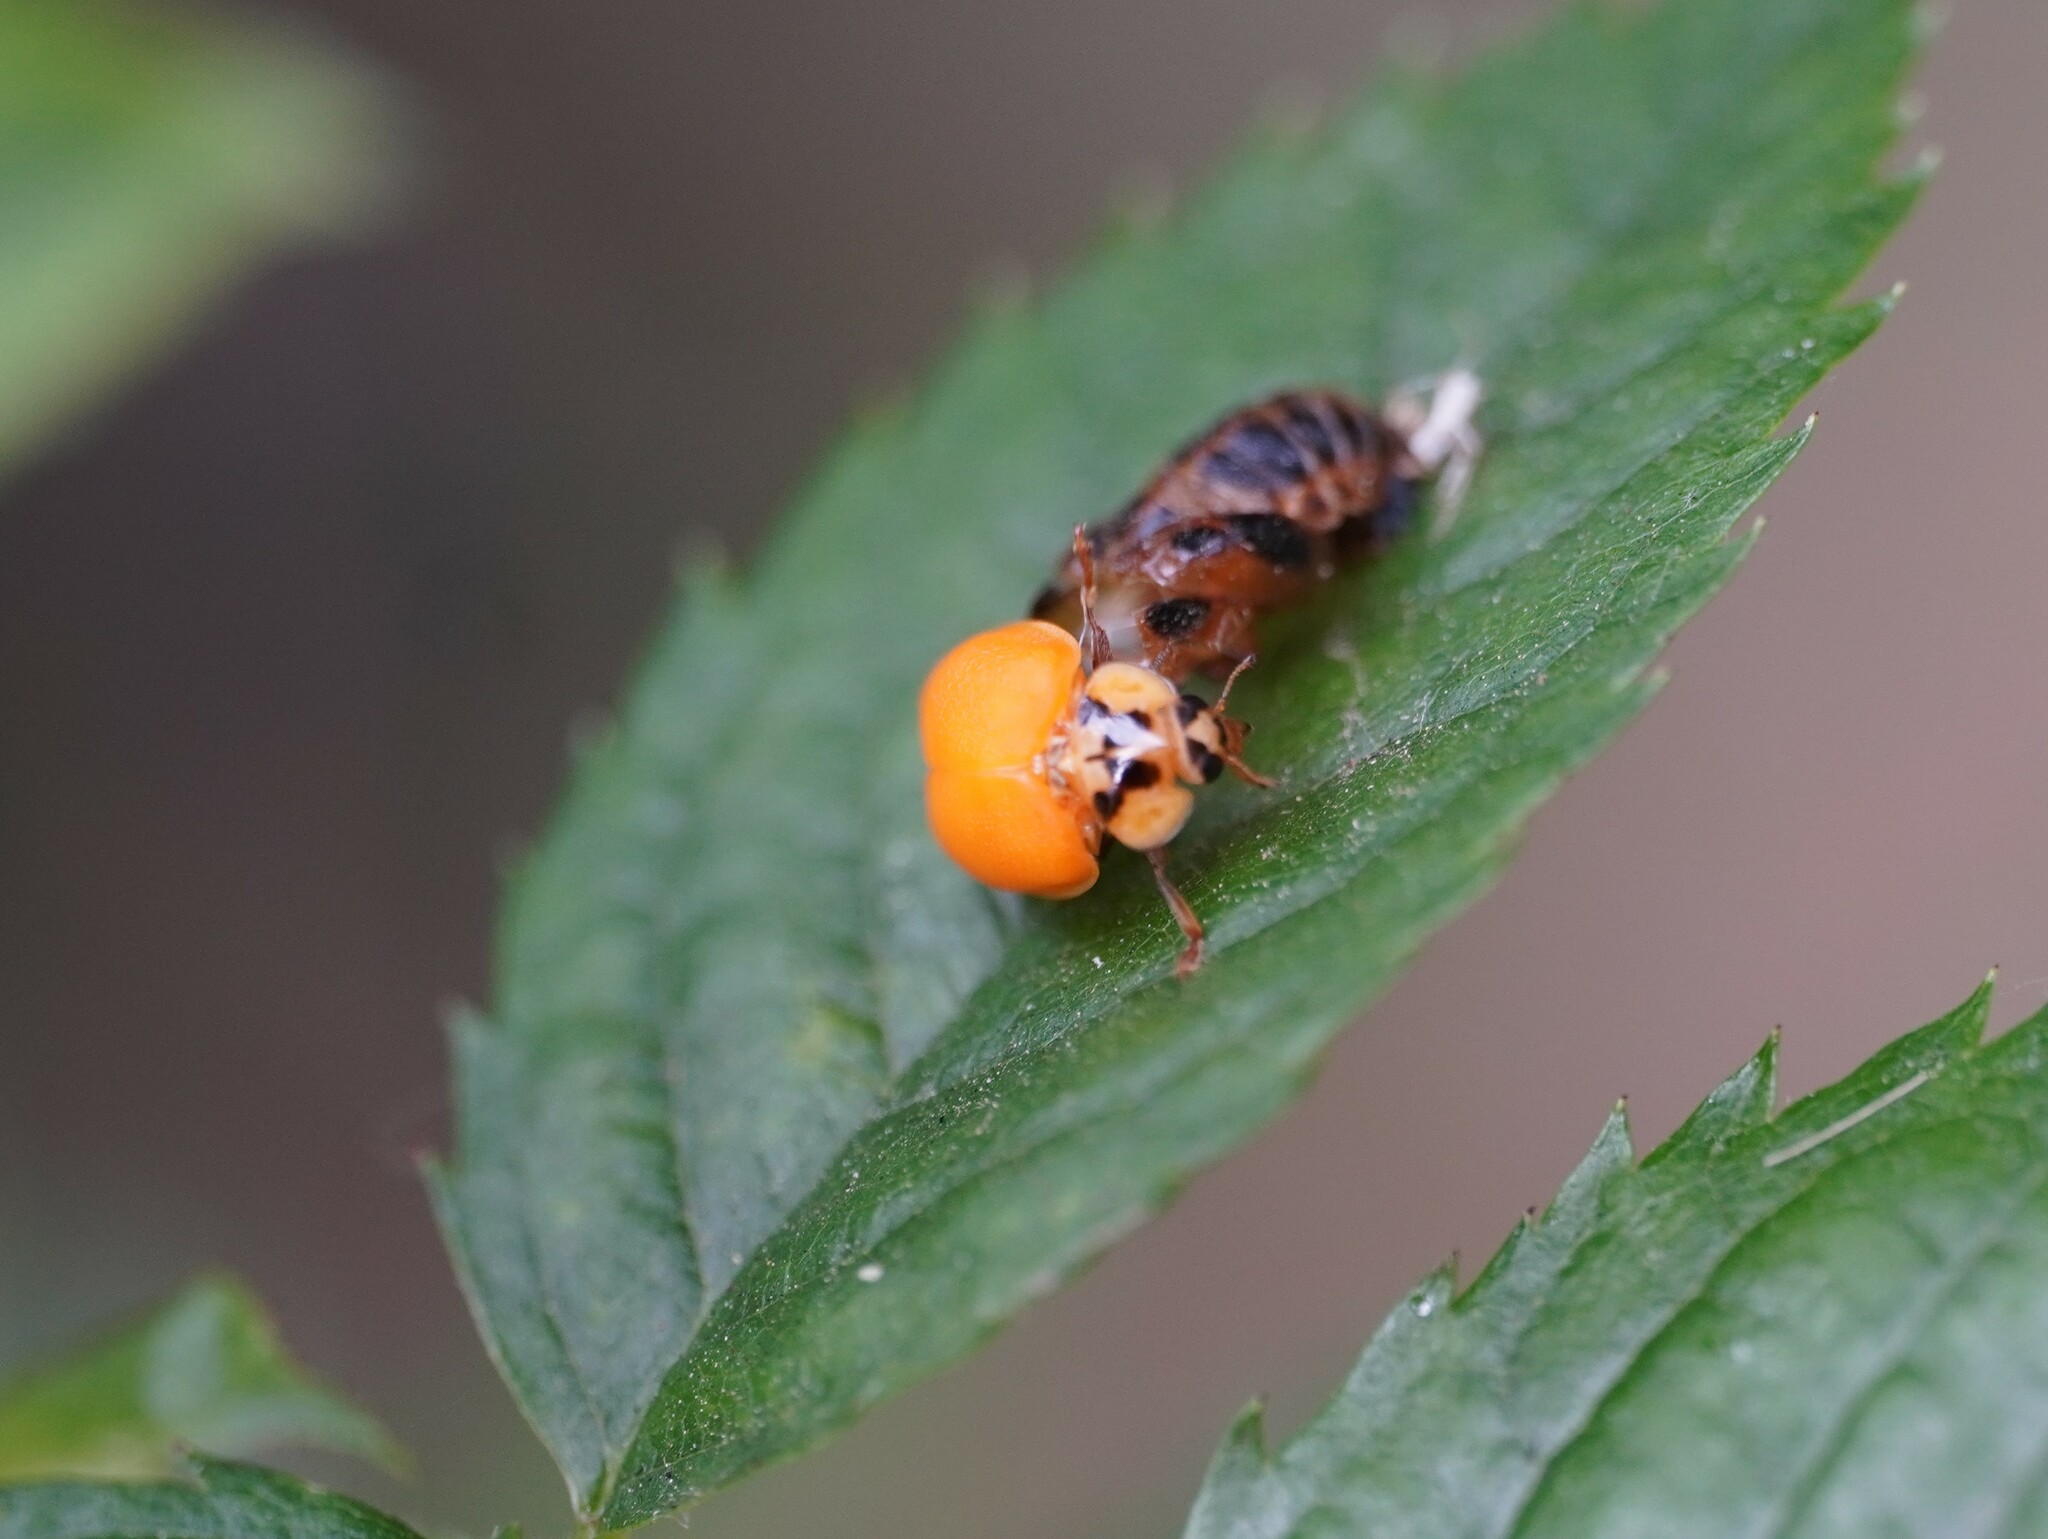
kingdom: Animalia
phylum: Arthropoda
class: Insecta
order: Coleoptera
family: Coccinellidae
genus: Harmonia
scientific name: Harmonia axyridis
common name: Harlequin ladybird
